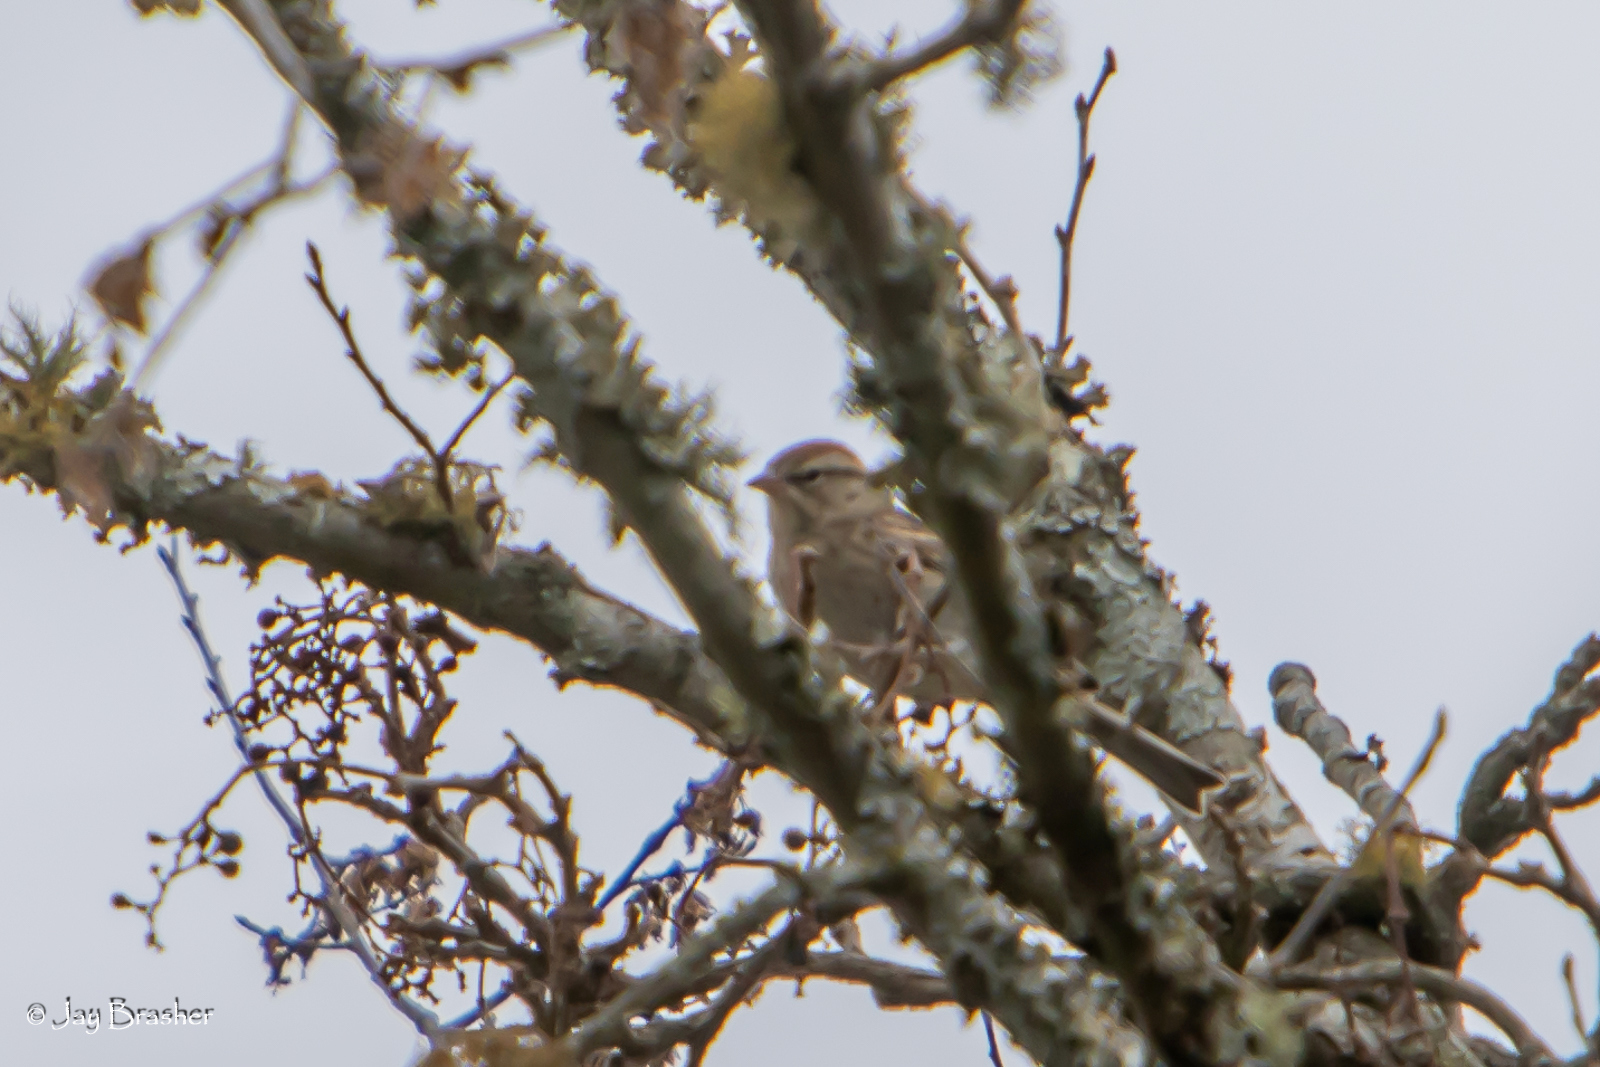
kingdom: Animalia
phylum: Chordata
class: Aves
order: Passeriformes
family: Passerellidae
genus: Spizella
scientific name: Spizella passerina
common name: Chipping sparrow
